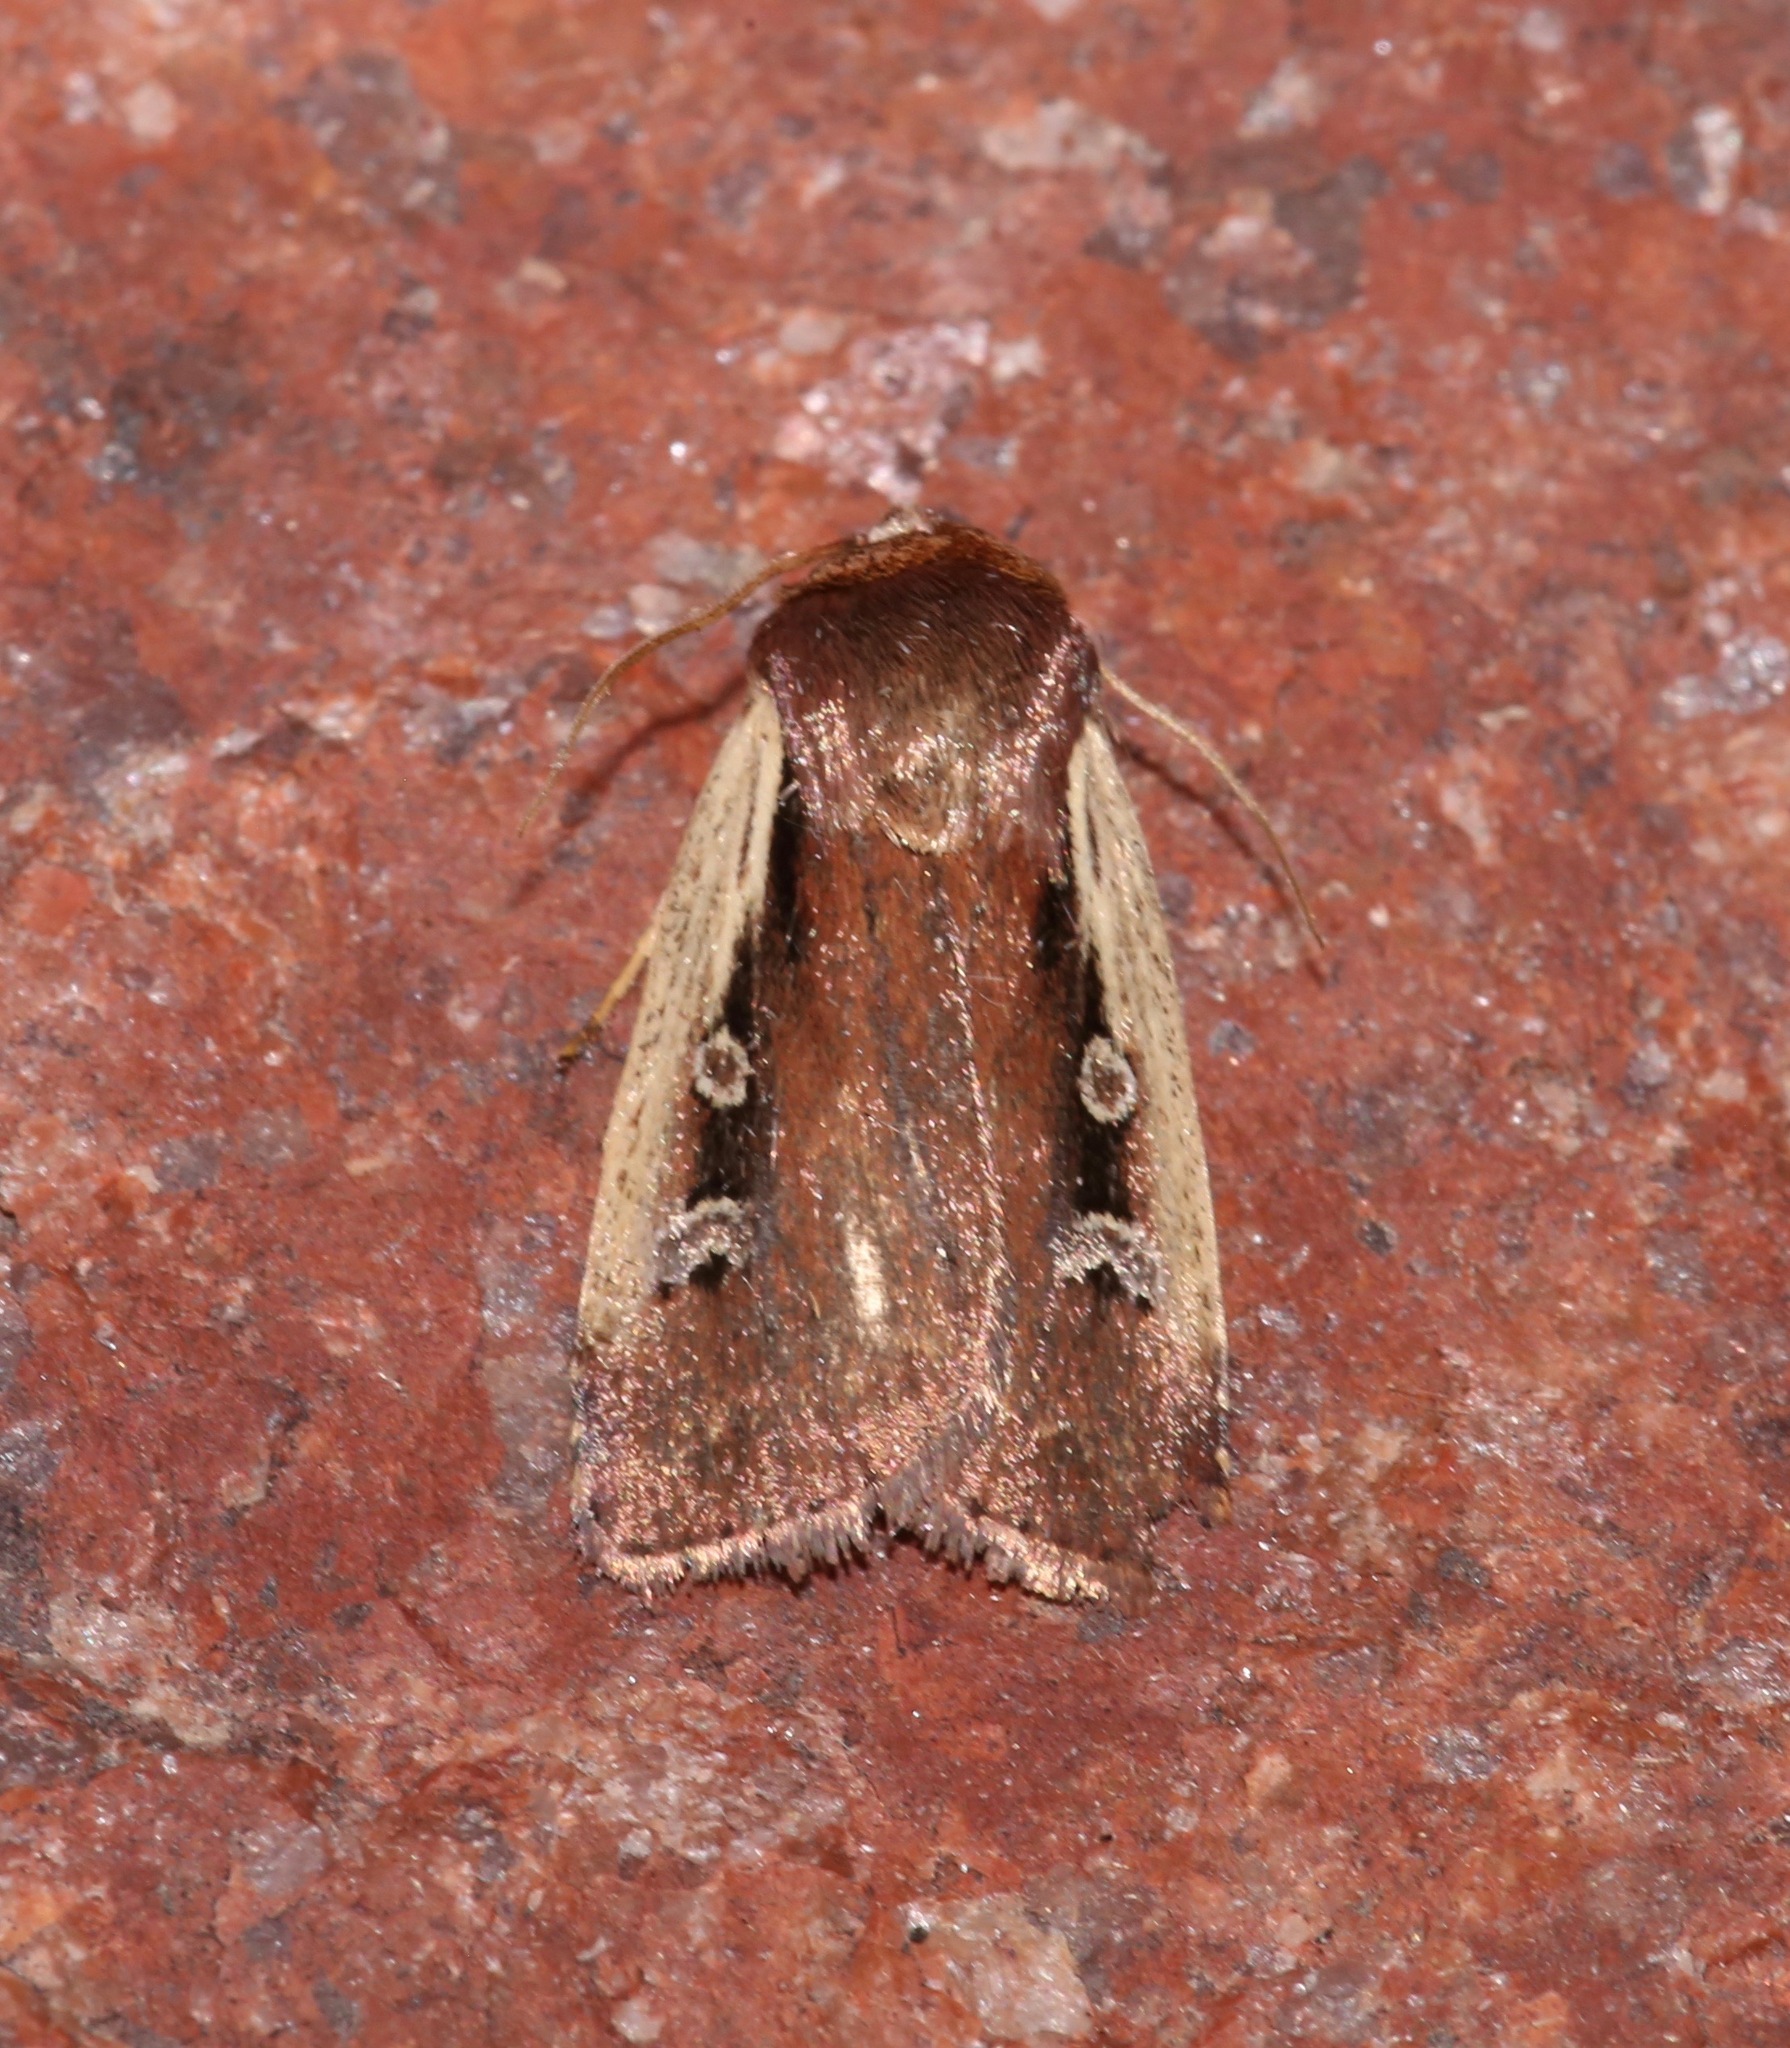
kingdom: Animalia
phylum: Arthropoda
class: Insecta
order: Lepidoptera
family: Noctuidae
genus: Ochropleura
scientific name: Ochropleura implecta
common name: Flame-shouldered dart
